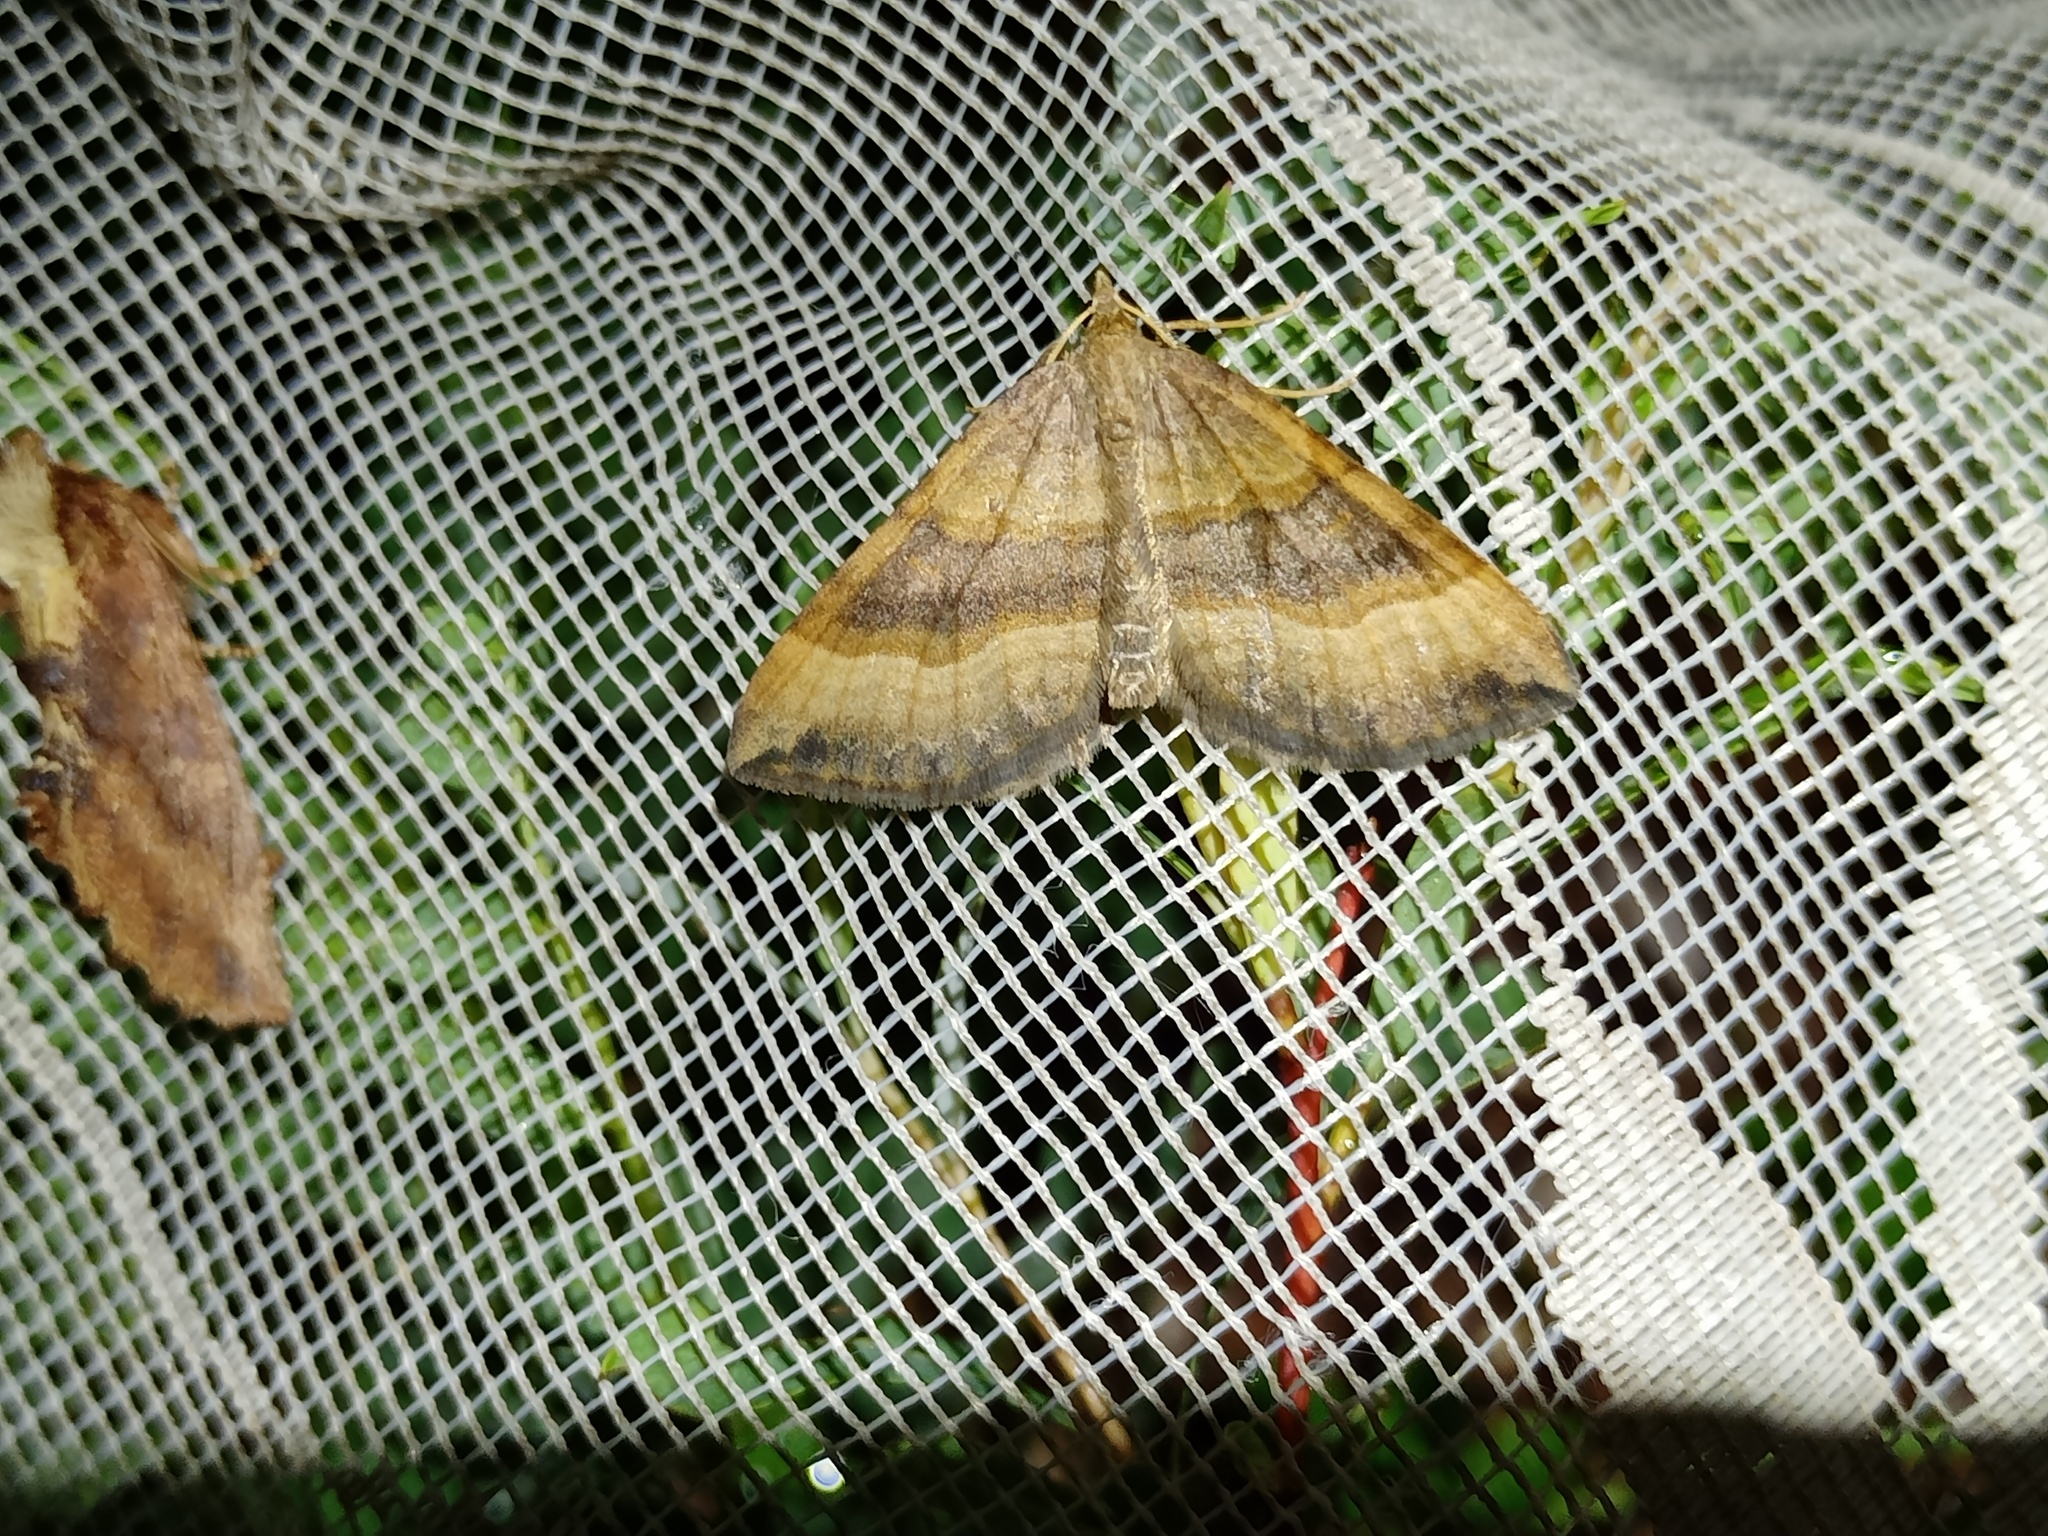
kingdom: Animalia
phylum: Arthropoda
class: Insecta
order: Lepidoptera
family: Geometridae
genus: Scotopteryx
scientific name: Scotopteryx chenopodiata
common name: Shaded broad-bar
